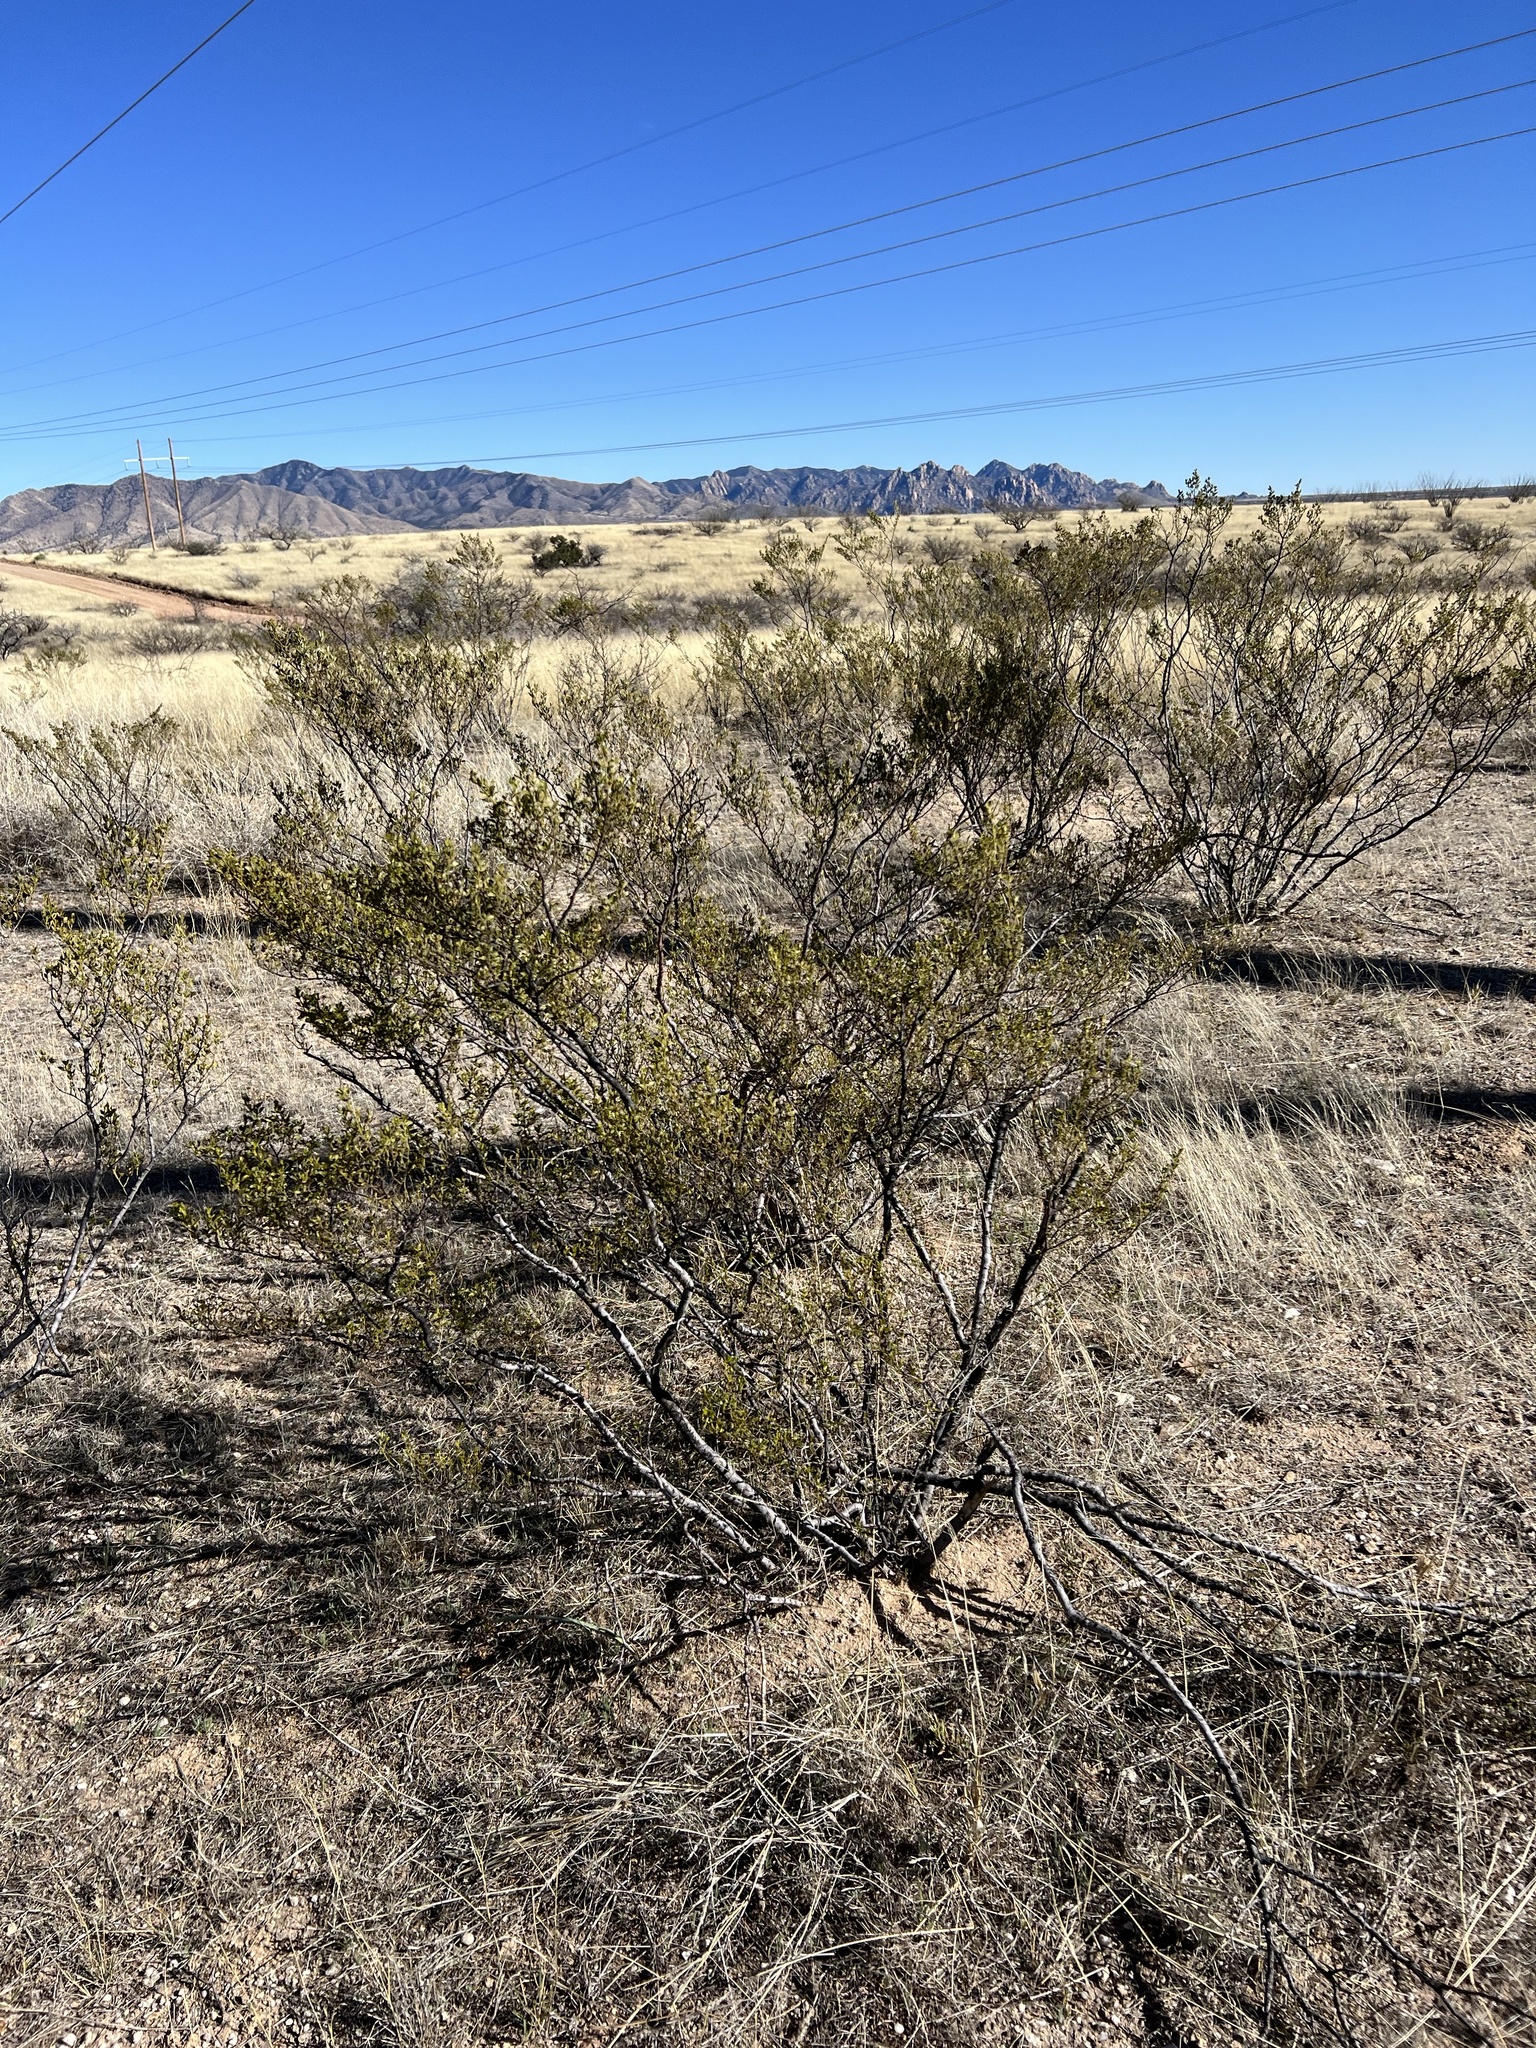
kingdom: Plantae
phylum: Tracheophyta
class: Magnoliopsida
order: Zygophyllales
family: Zygophyllaceae
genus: Larrea
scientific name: Larrea tridentata
